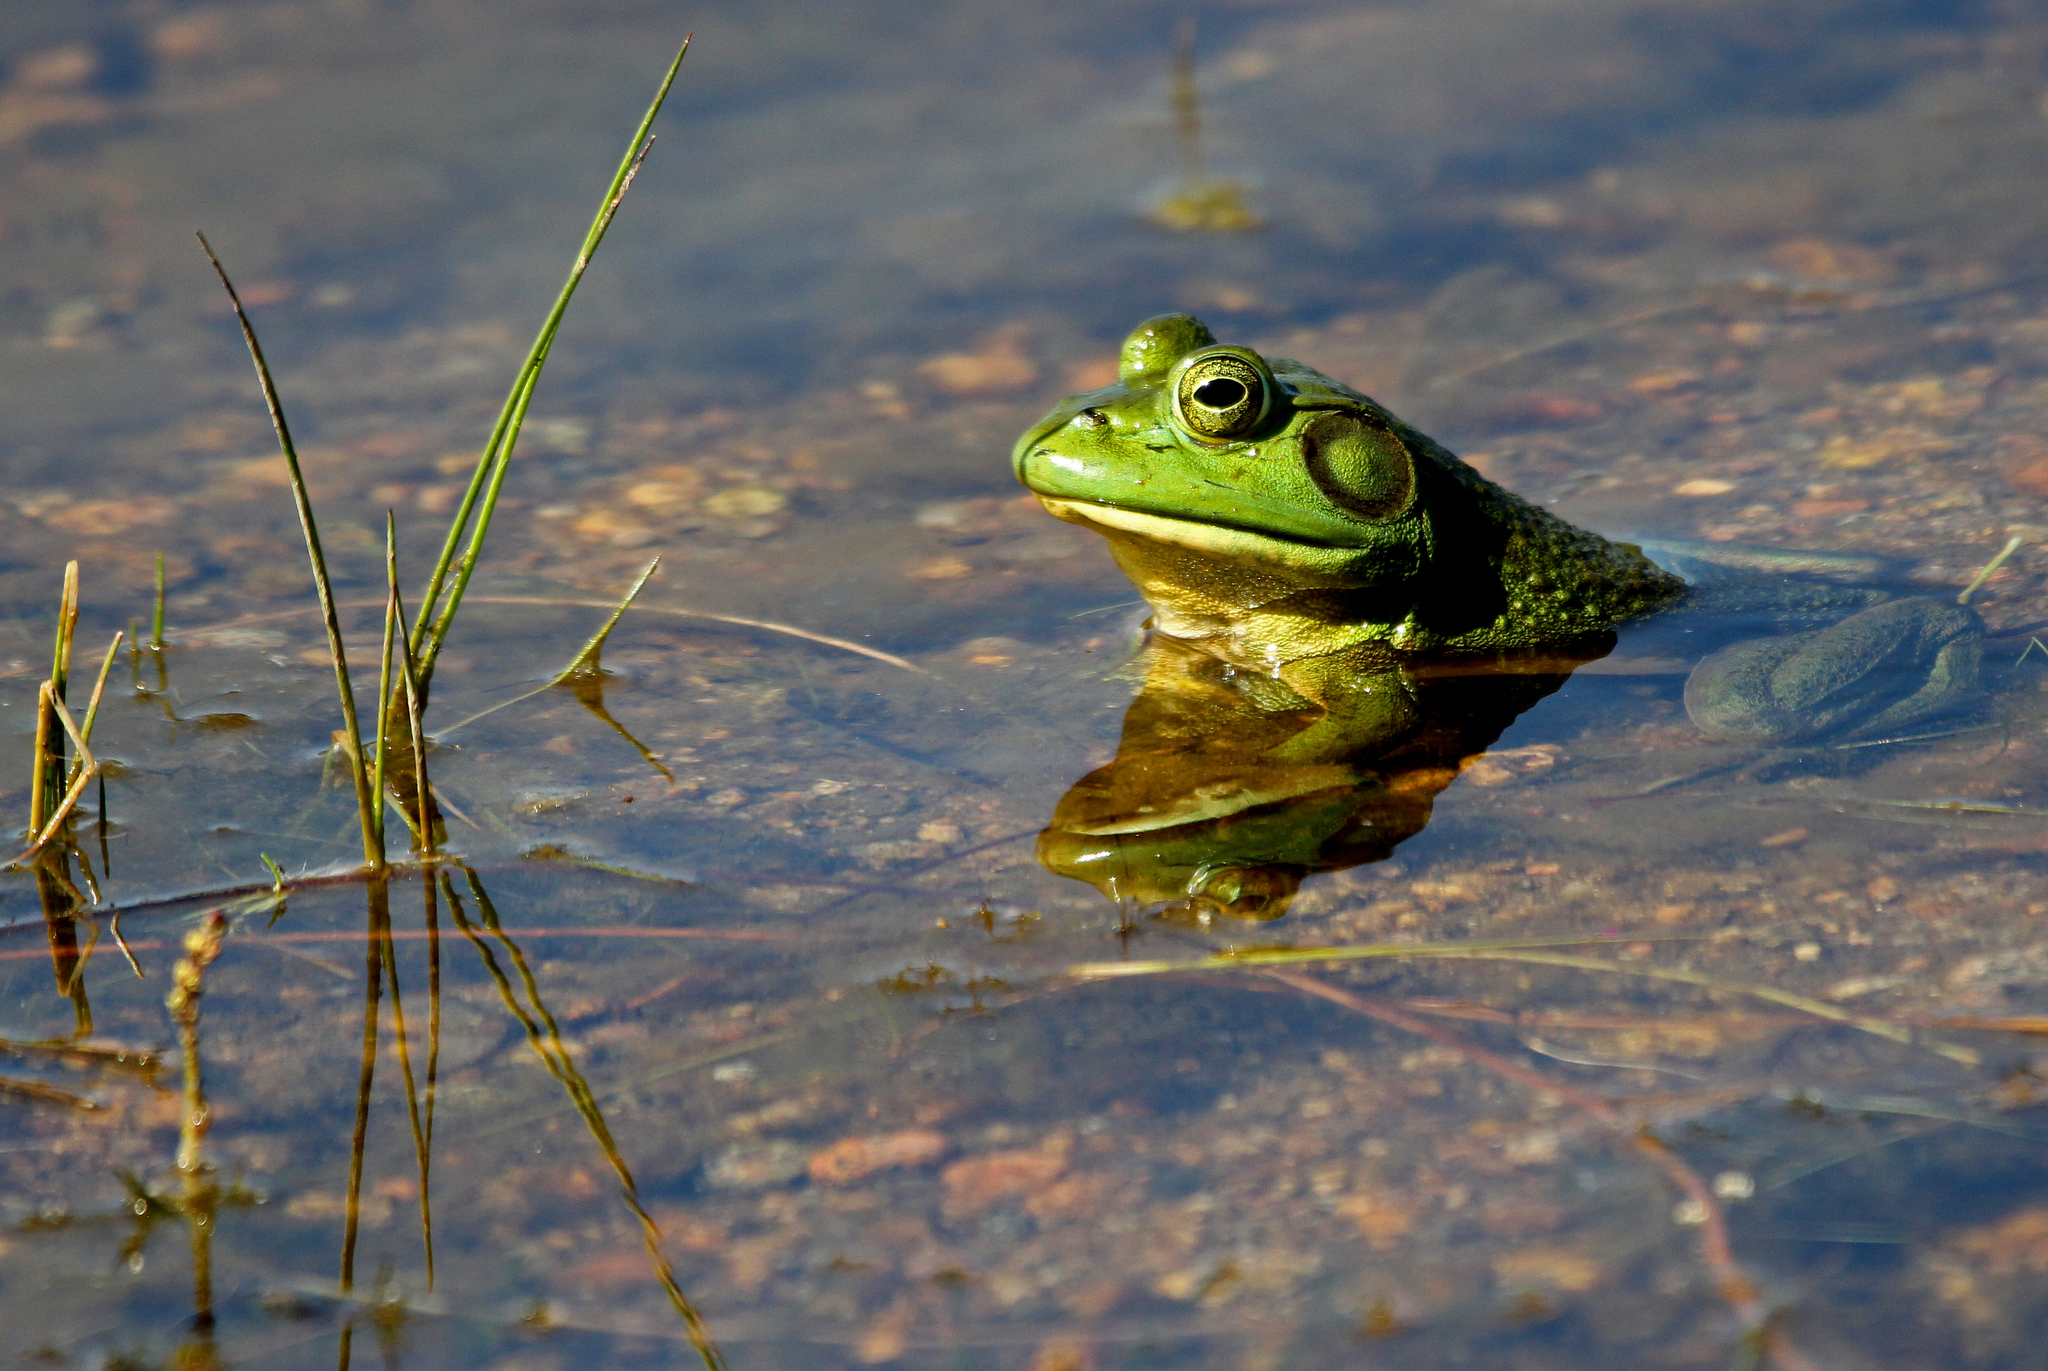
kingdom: Animalia
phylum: Chordata
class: Amphibia
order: Anura
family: Ranidae
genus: Lithobates
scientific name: Lithobates catesbeianus
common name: American bullfrog
